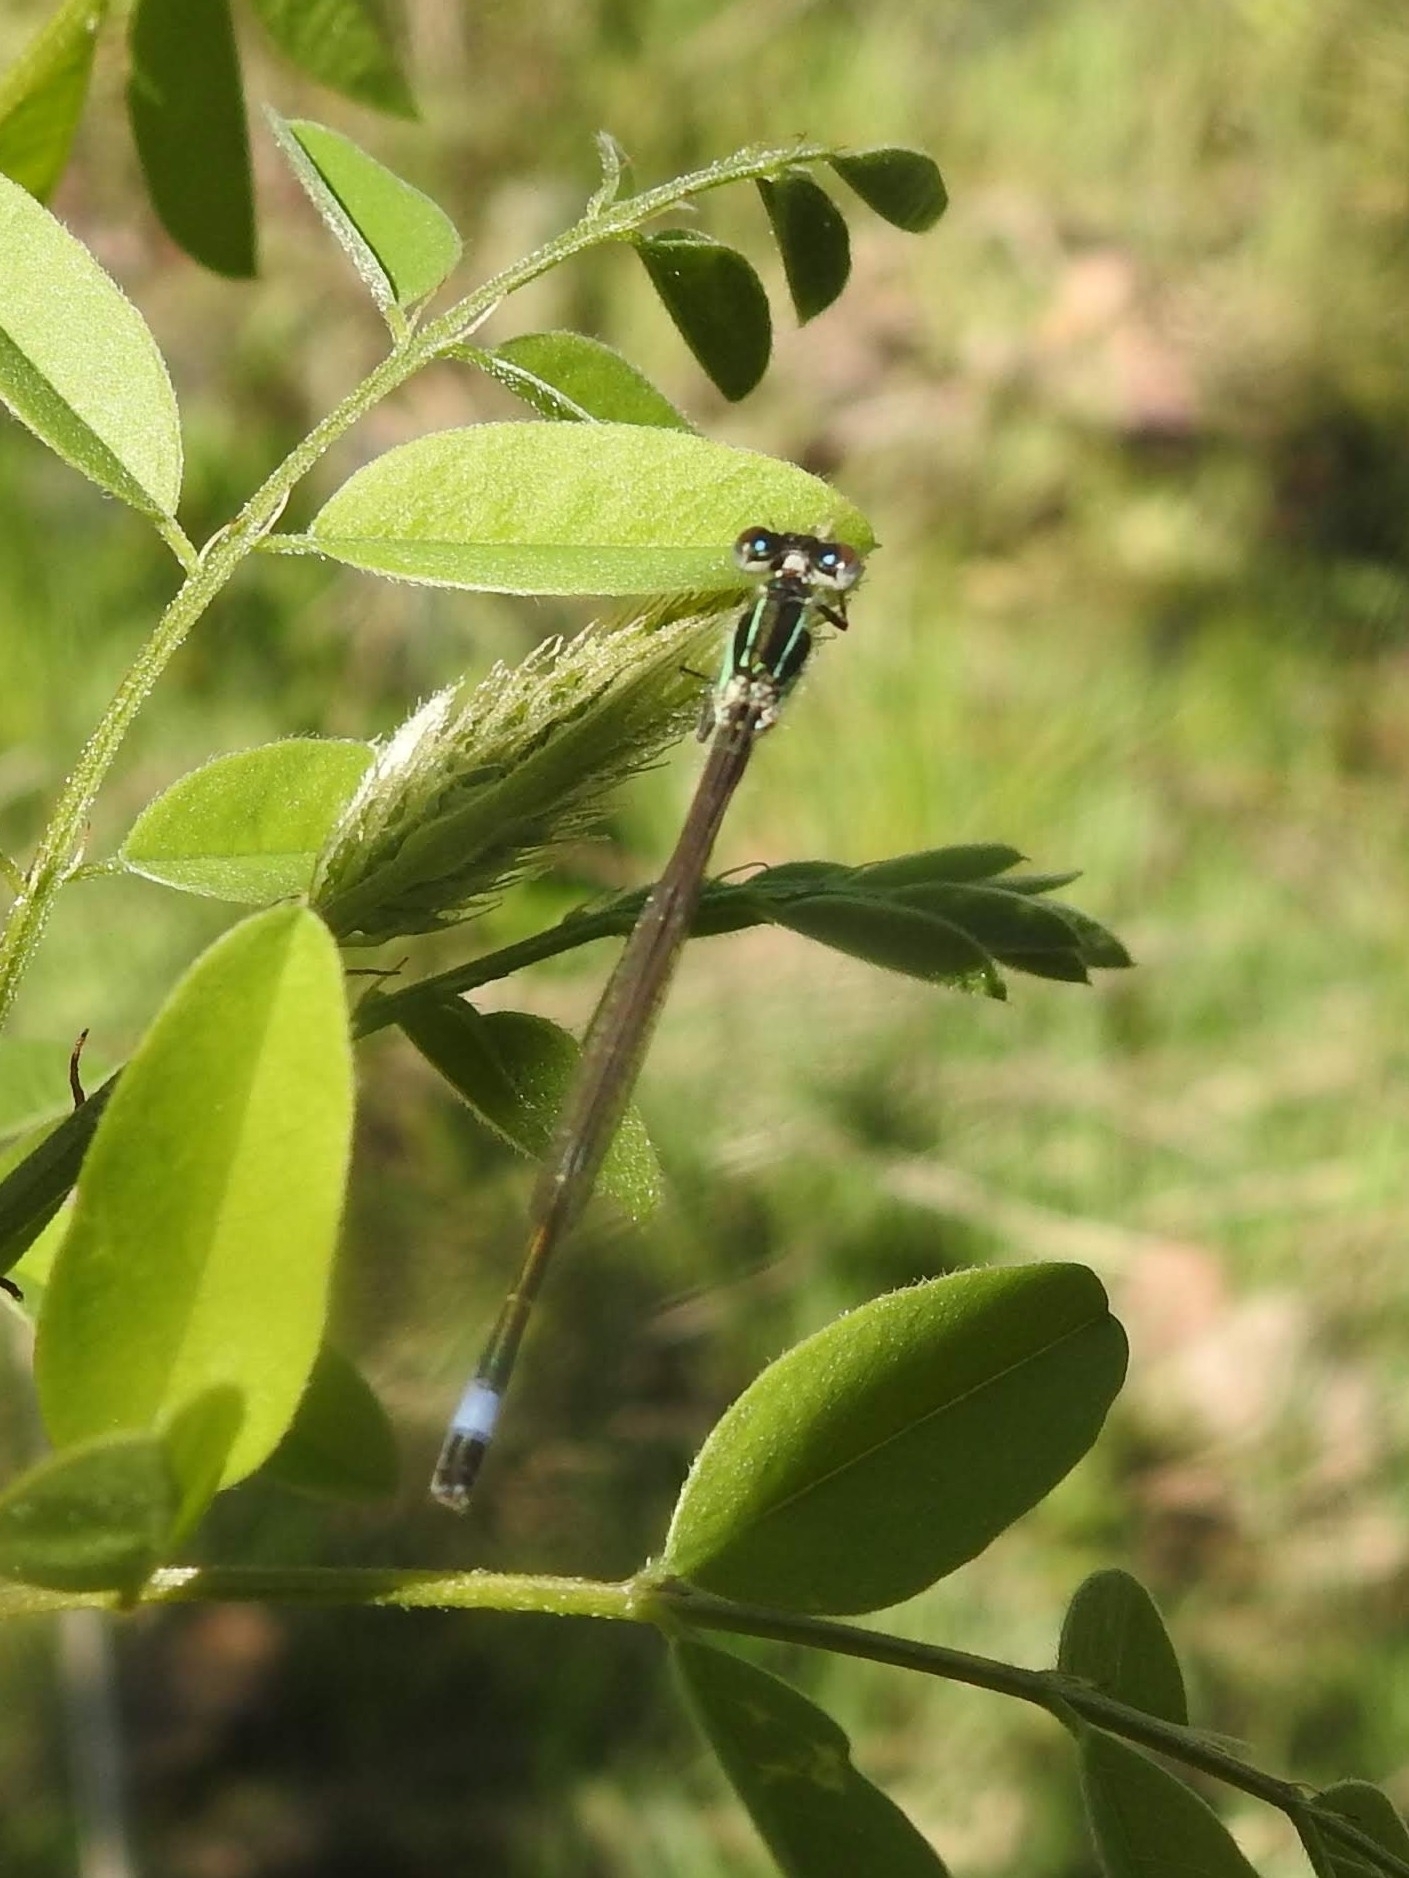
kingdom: Animalia
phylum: Arthropoda
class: Insecta
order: Odonata
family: Coenagrionidae
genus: Ischnura
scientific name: Ischnura elegans
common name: Blue-tailed damselfly
